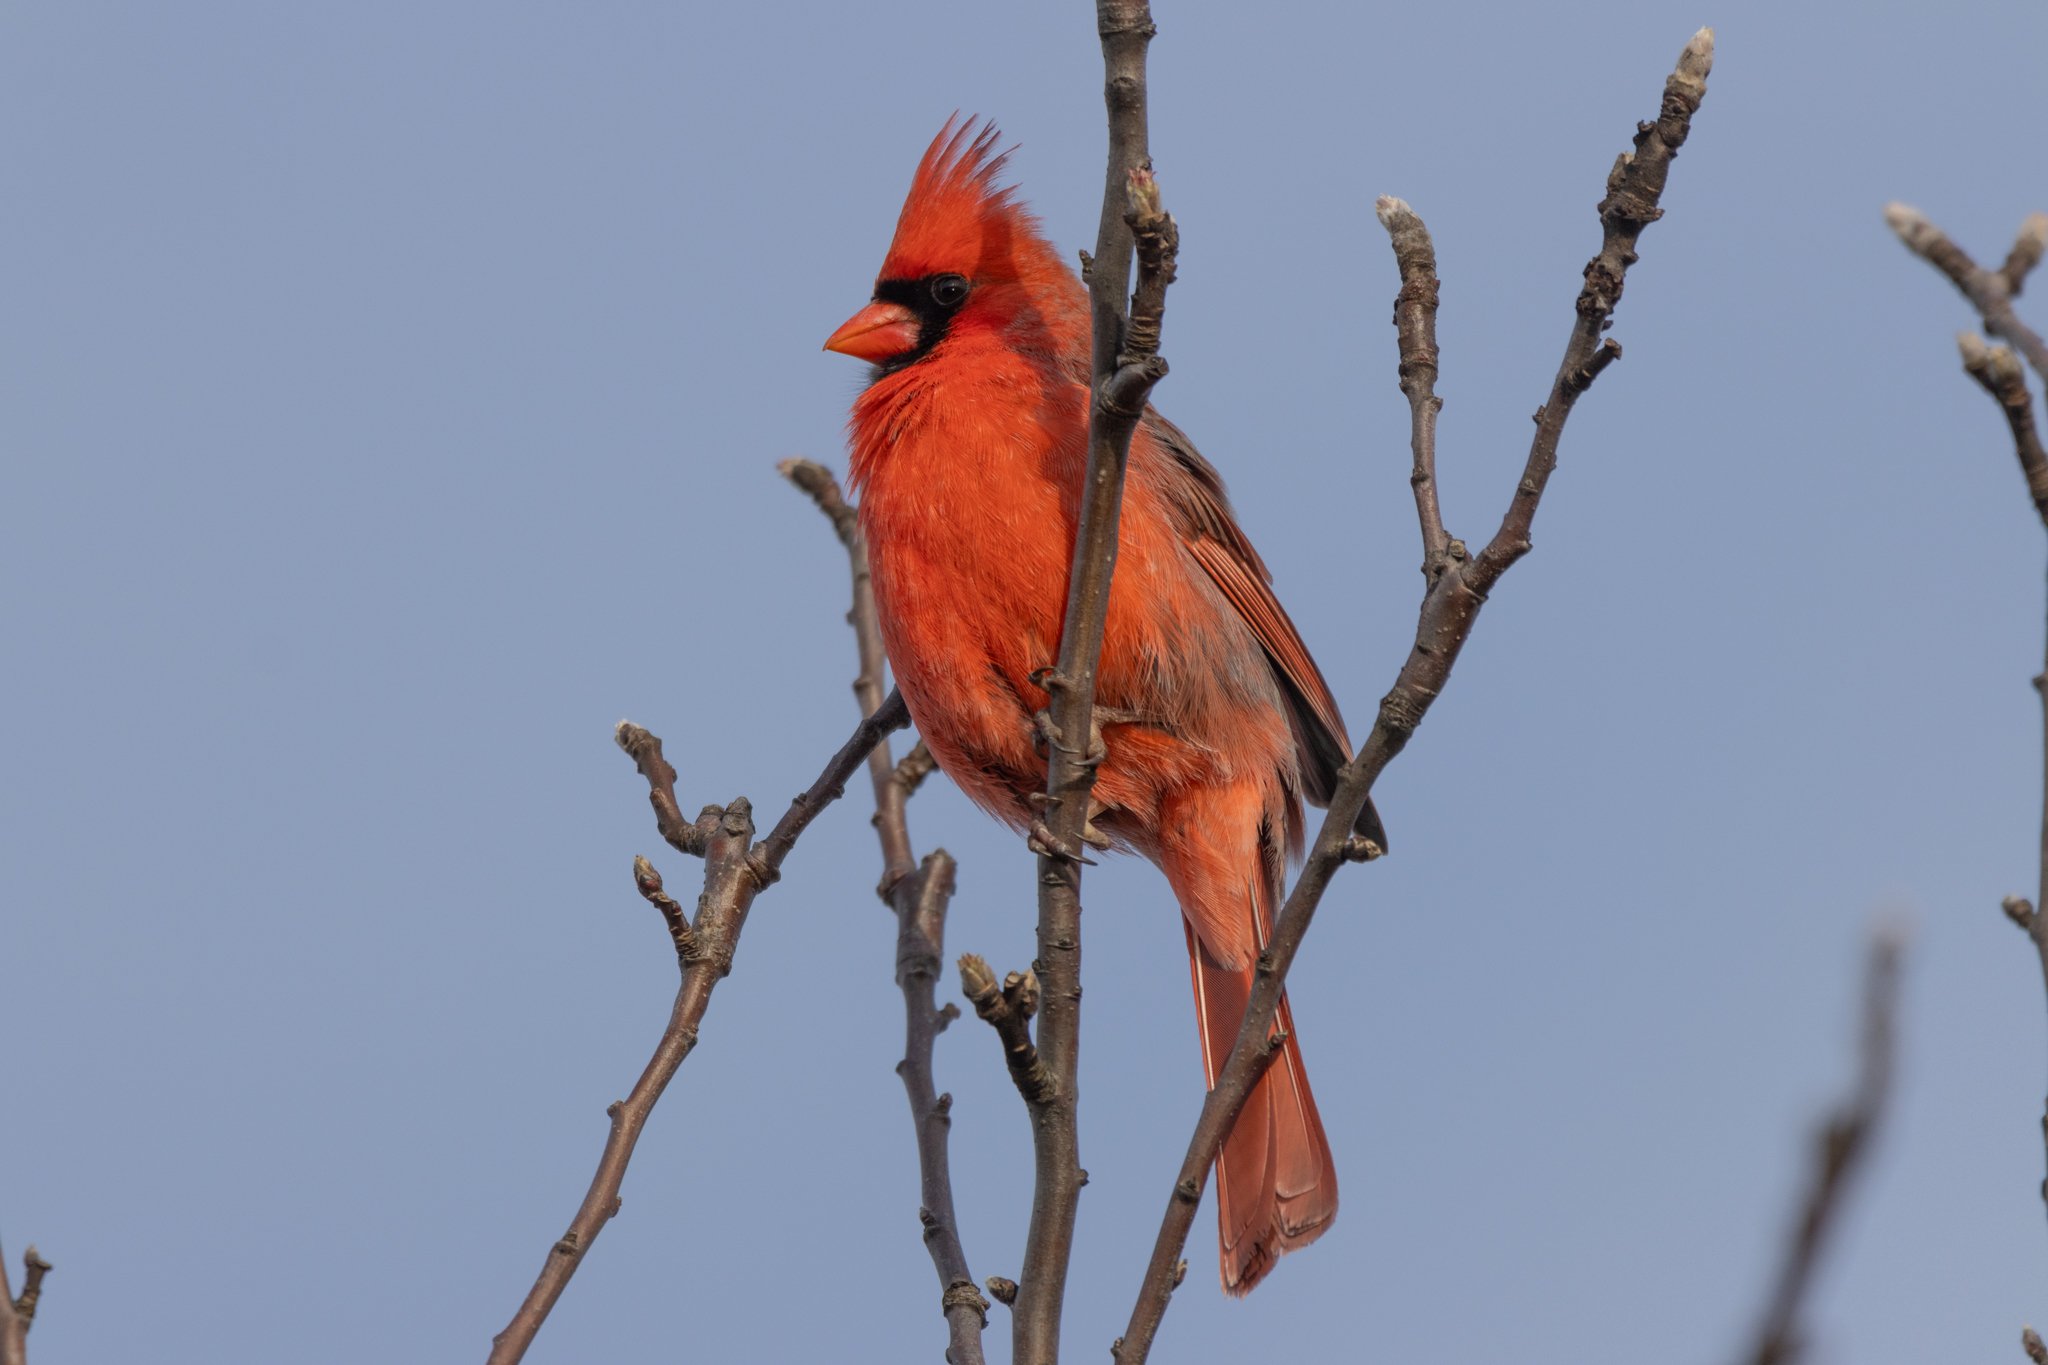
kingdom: Animalia
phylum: Chordata
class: Aves
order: Passeriformes
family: Cardinalidae
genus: Cardinalis
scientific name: Cardinalis cardinalis
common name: Northern cardinal
